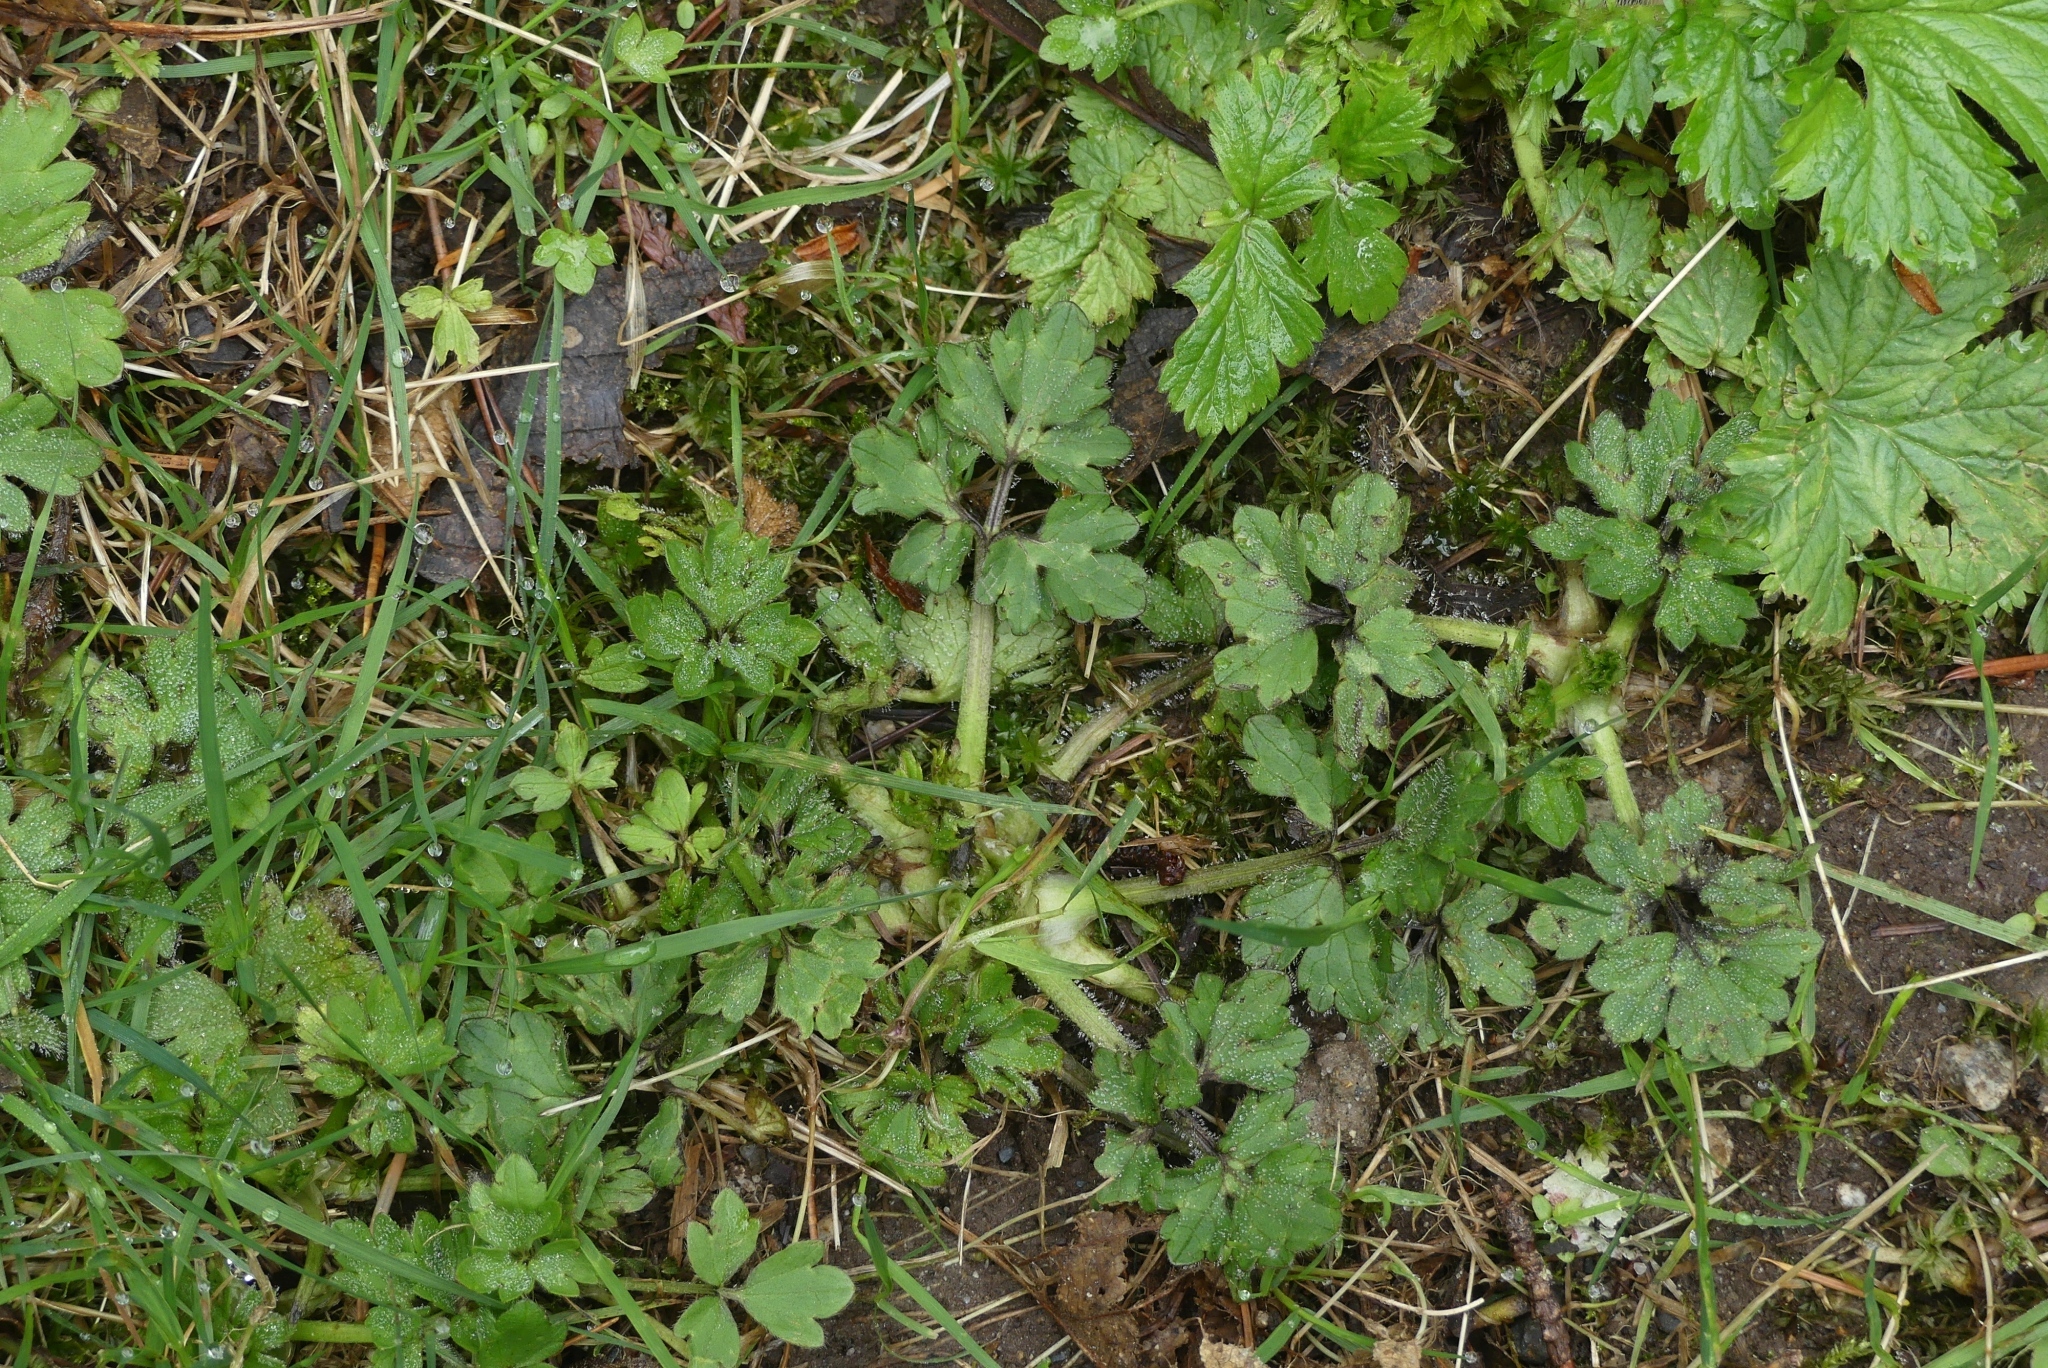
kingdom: Plantae
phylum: Tracheophyta
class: Magnoliopsida
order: Ranunculales
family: Ranunculaceae
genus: Ranunculus
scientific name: Ranunculus repens
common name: Creeping buttercup
